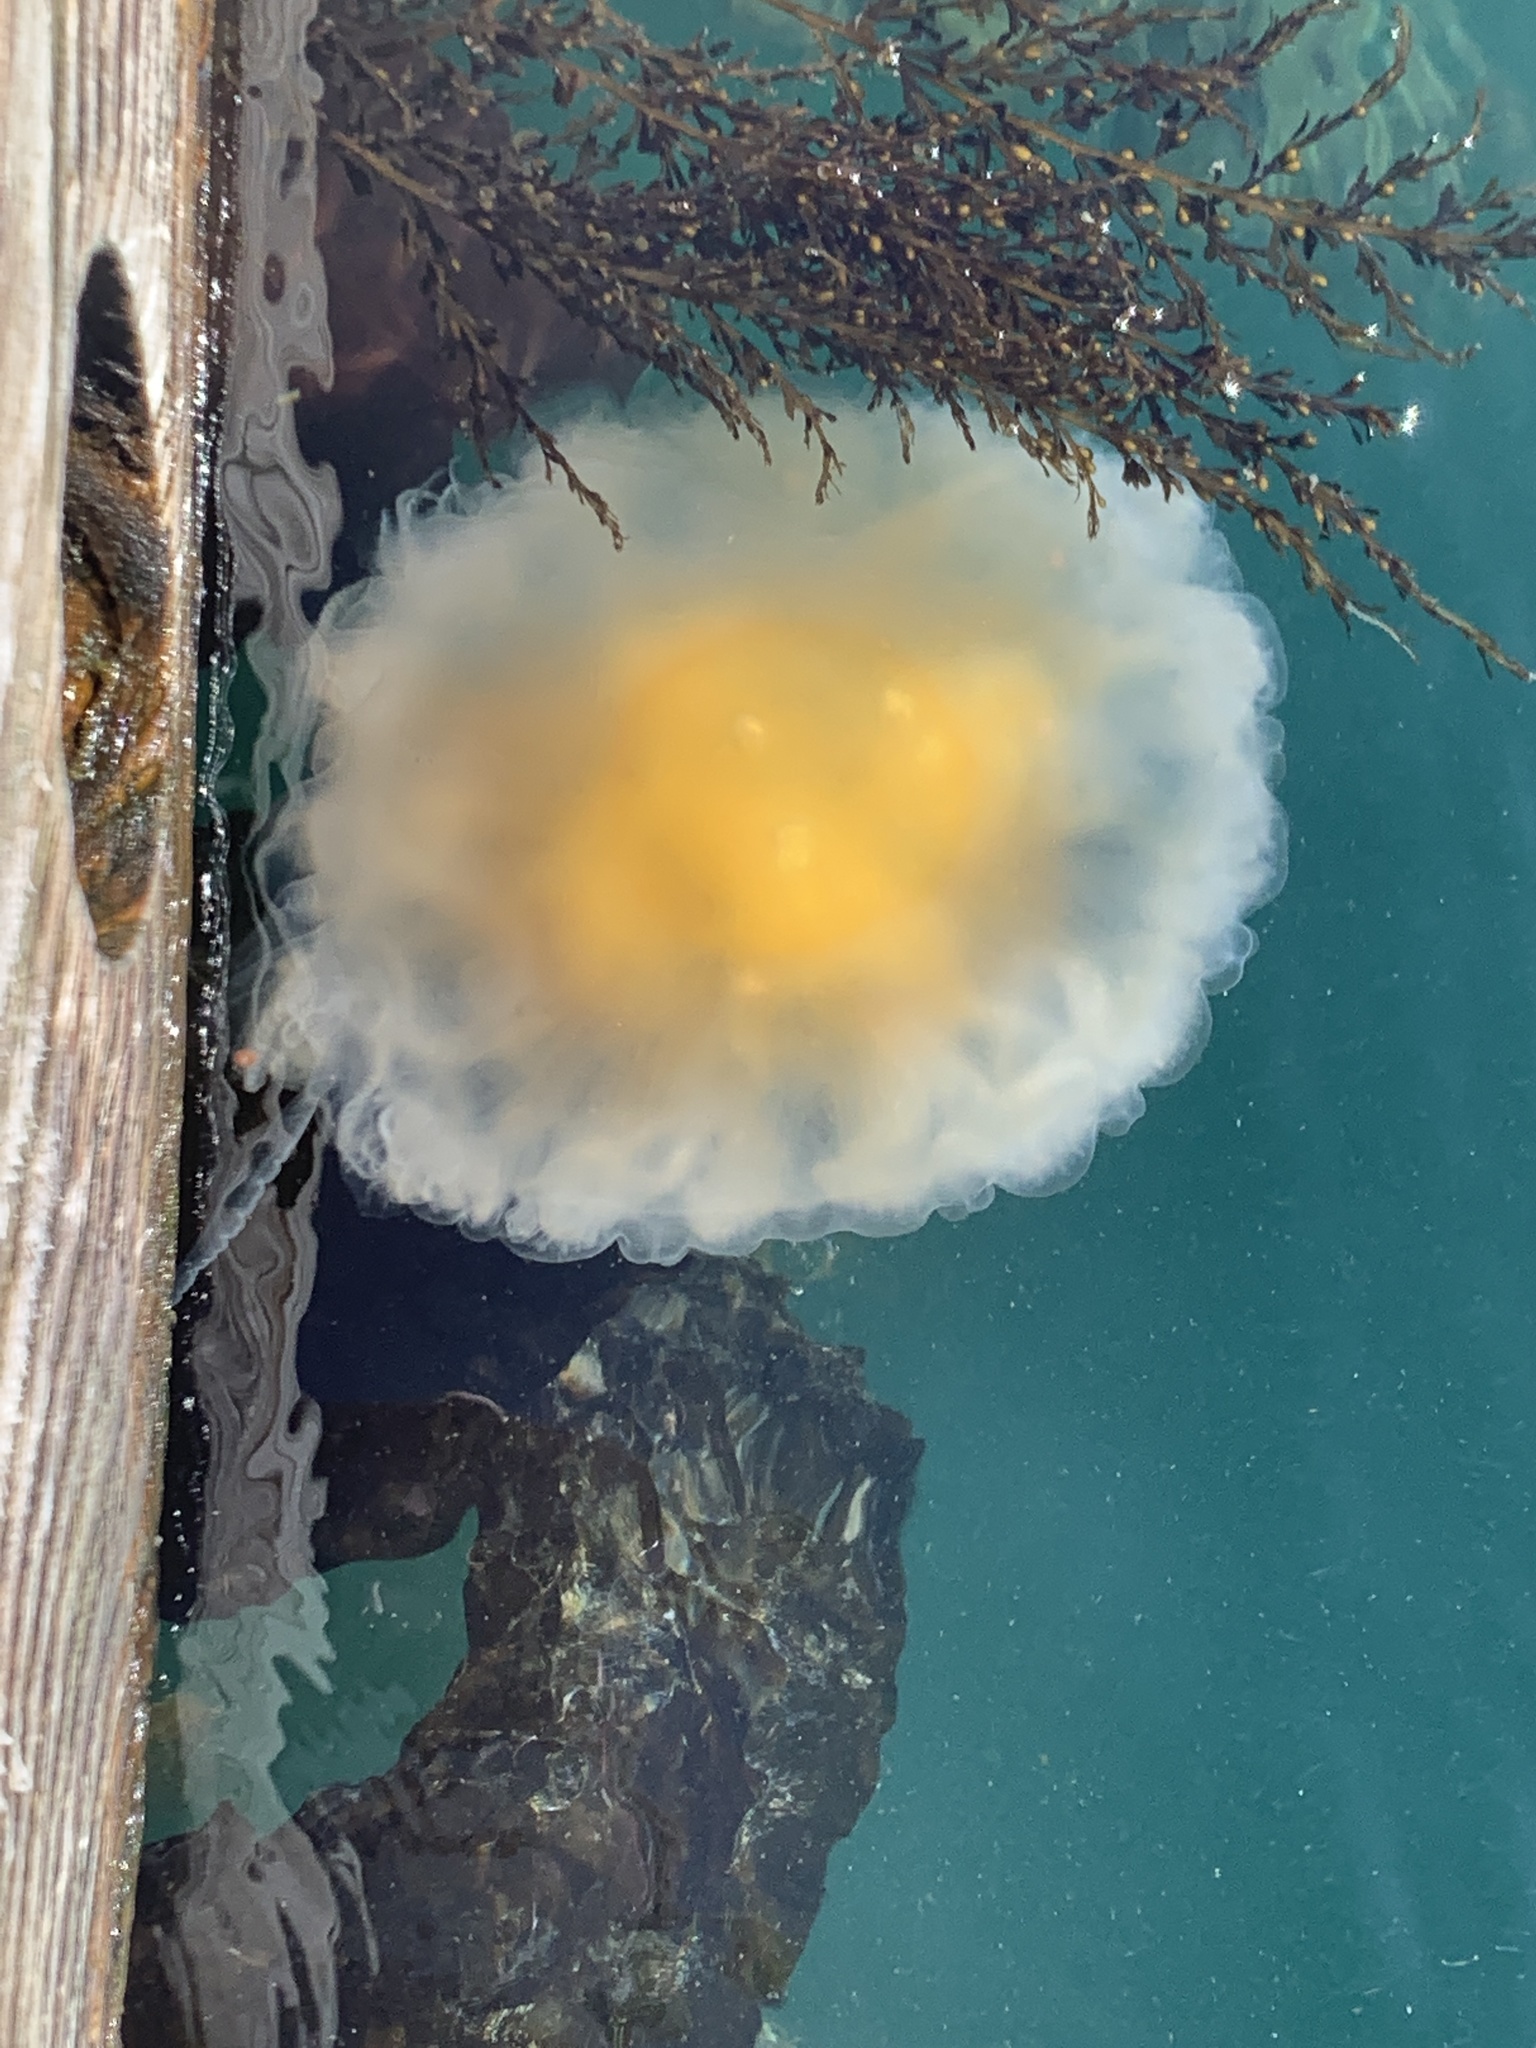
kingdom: Animalia
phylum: Cnidaria
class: Scyphozoa
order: Semaeostomeae
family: Phacellophoridae
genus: Phacellophora
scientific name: Phacellophora camtschatica
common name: Fried-egg jellyfish
